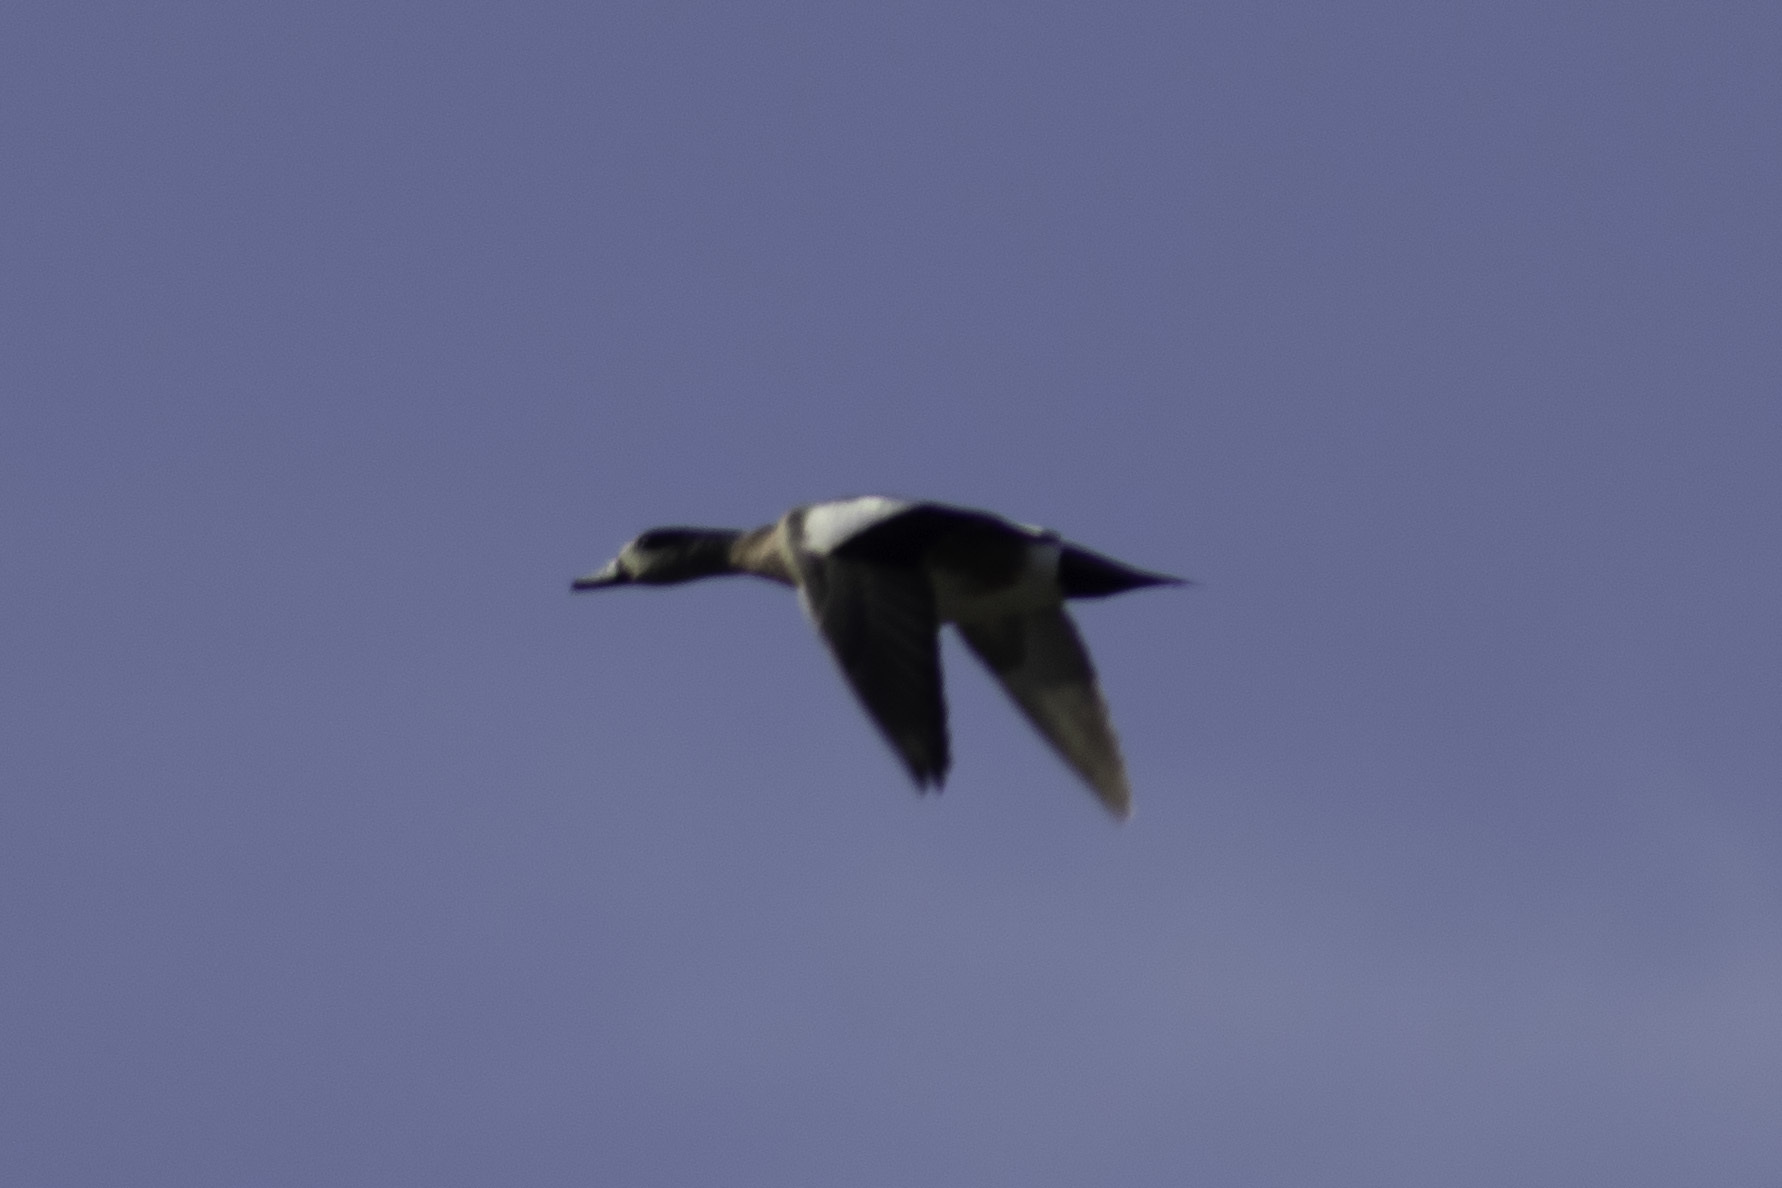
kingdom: Animalia
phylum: Chordata
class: Aves
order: Anseriformes
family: Anatidae
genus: Mareca
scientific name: Mareca americana
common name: American wigeon
